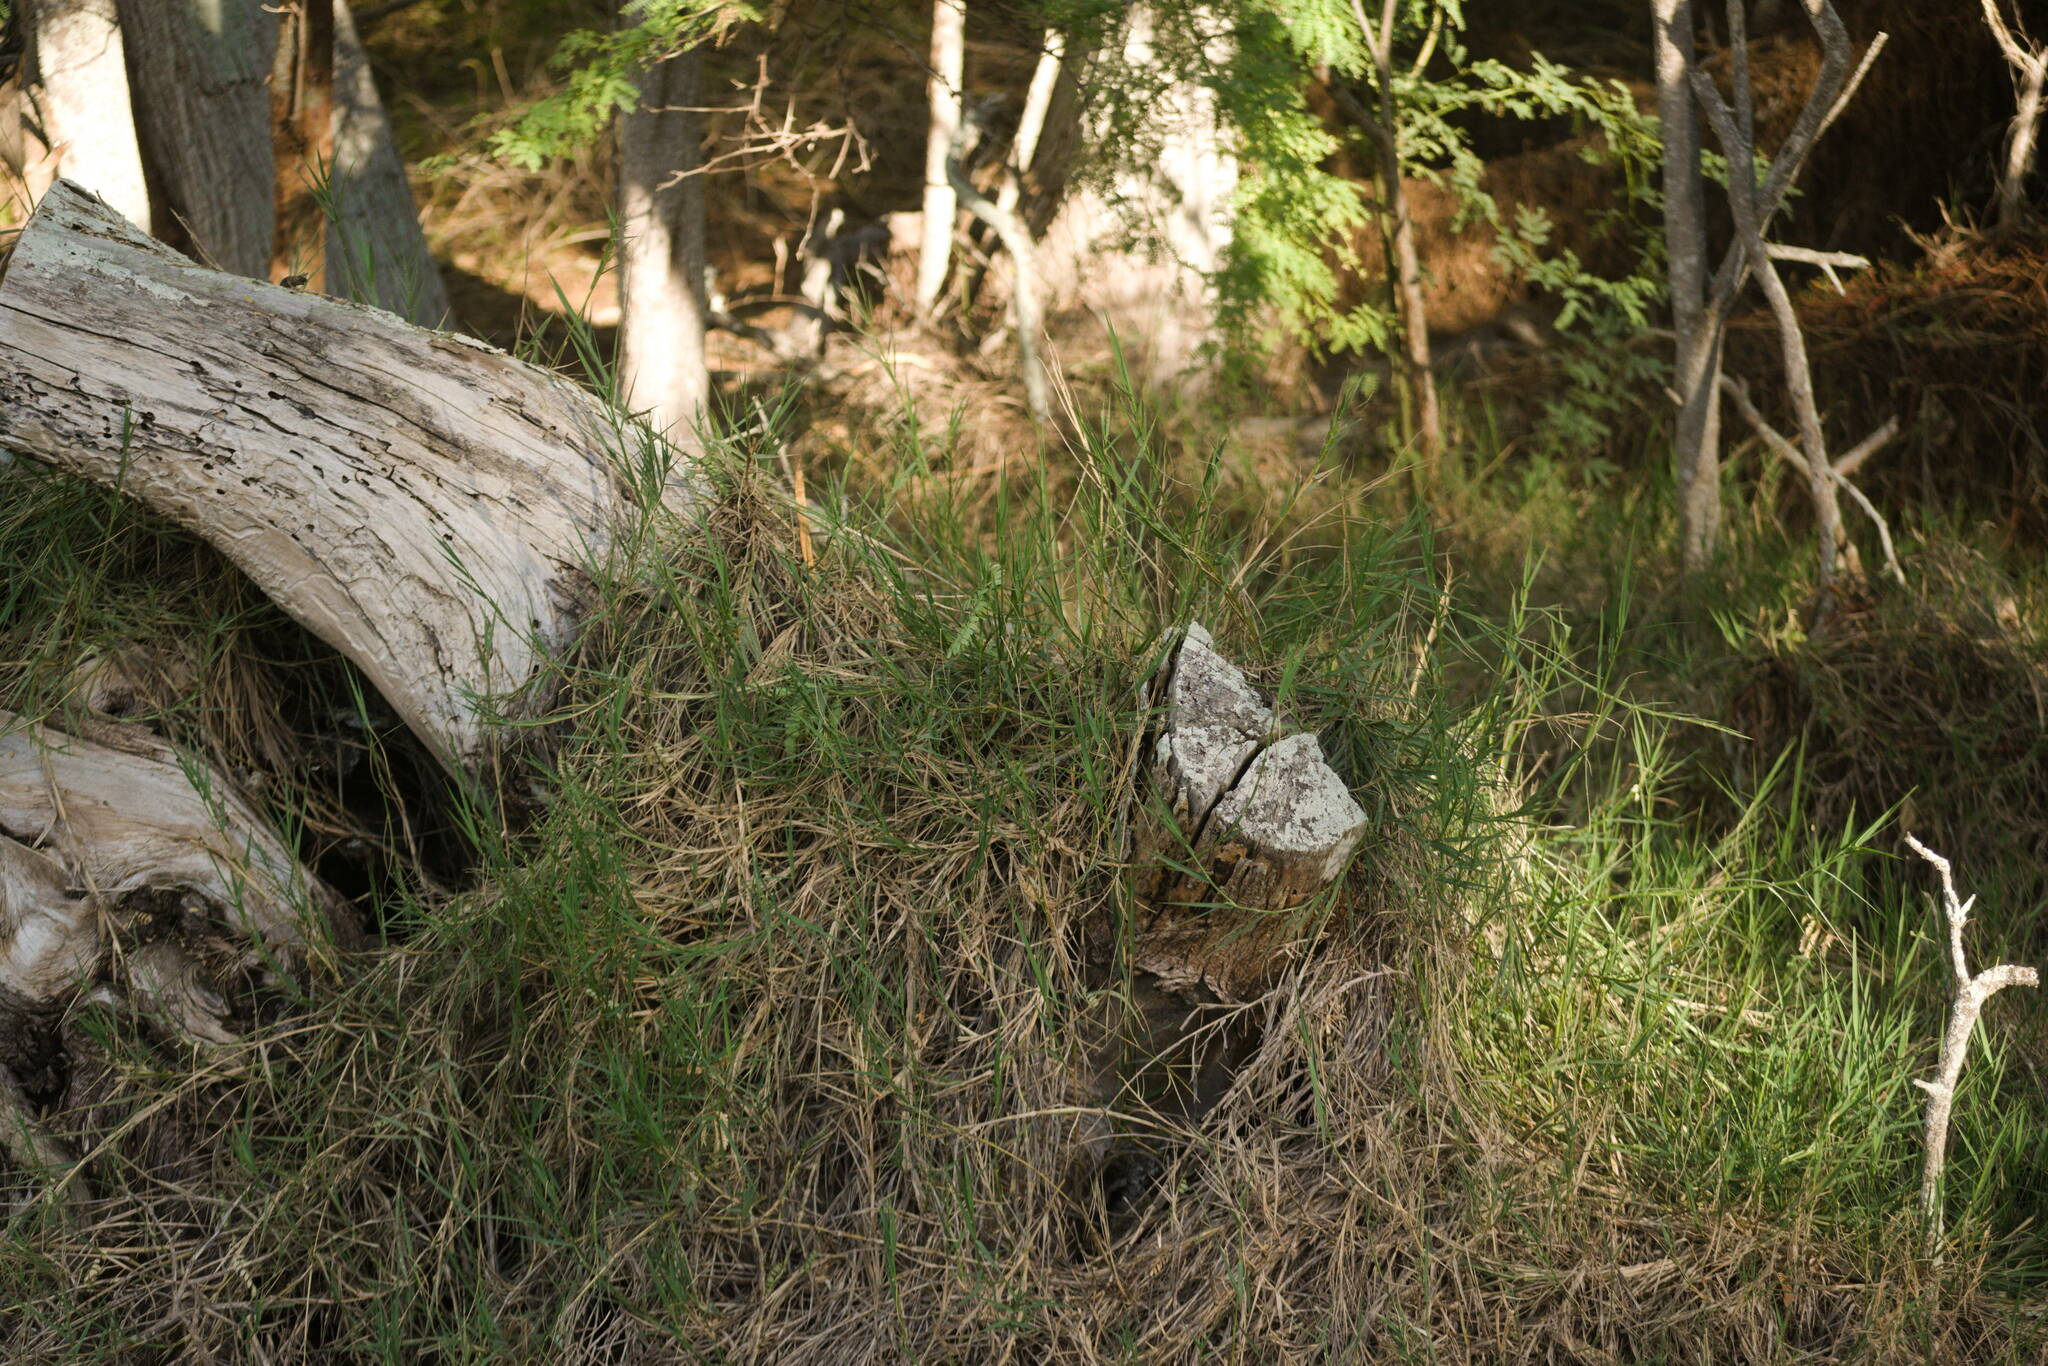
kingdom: Plantae
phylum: Tracheophyta
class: Liliopsida
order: Poales
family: Poaceae
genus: Cynodon
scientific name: Cynodon dactylon
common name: Bermuda grass
